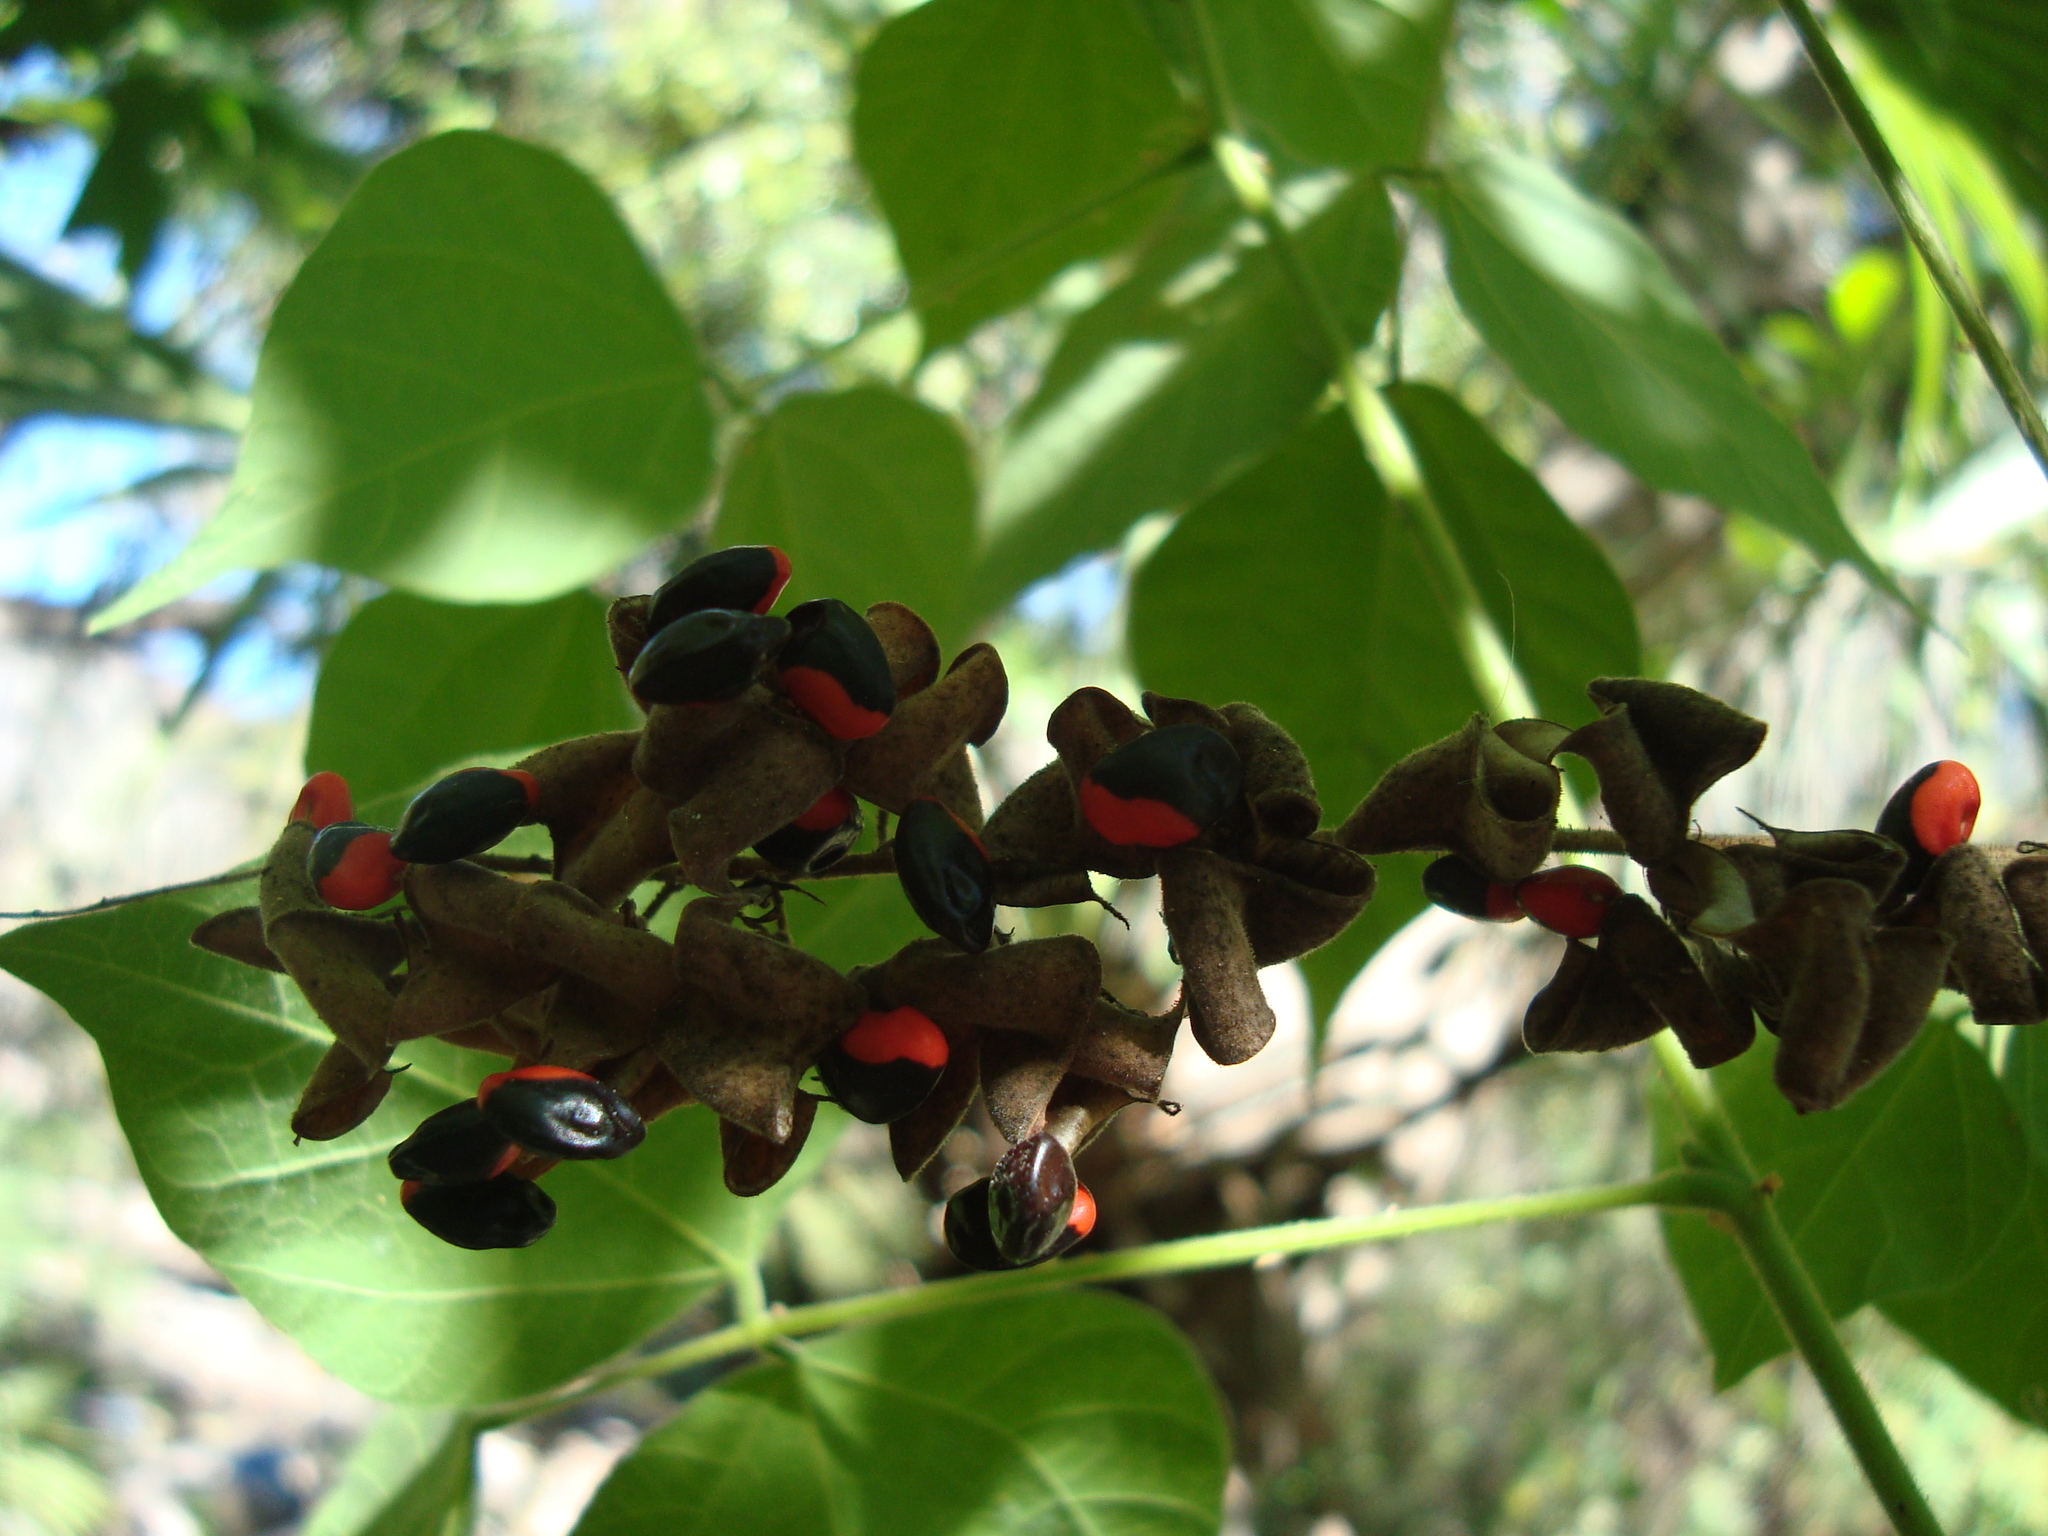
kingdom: Plantae
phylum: Tracheophyta
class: Magnoliopsida
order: Fabales
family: Fabaceae
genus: Rhynchosia
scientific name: Rhynchosia precatoria
